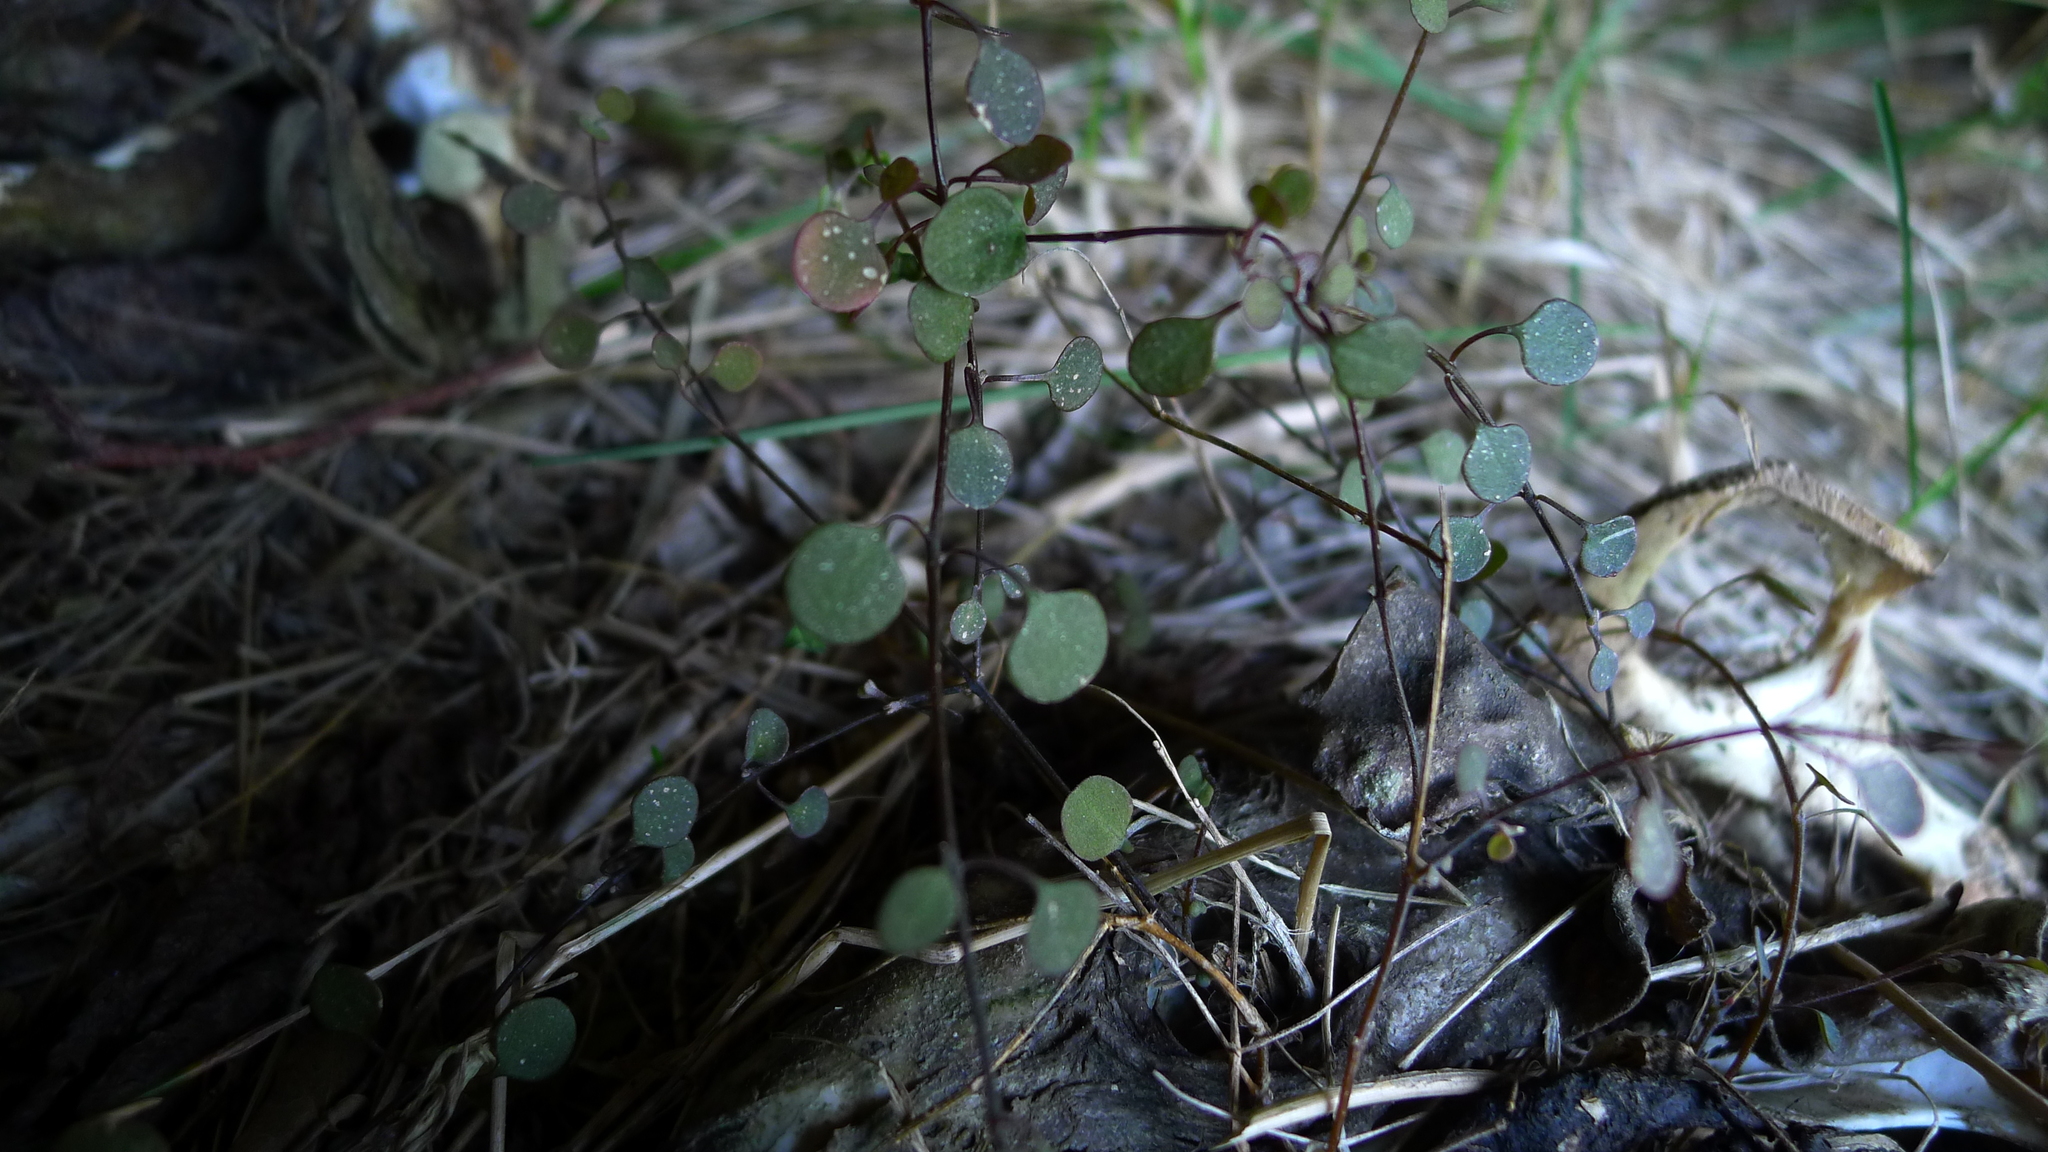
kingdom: Plantae
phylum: Tracheophyta
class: Magnoliopsida
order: Caryophyllales
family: Amaranthaceae
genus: Chenopodium
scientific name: Chenopodium allanii
